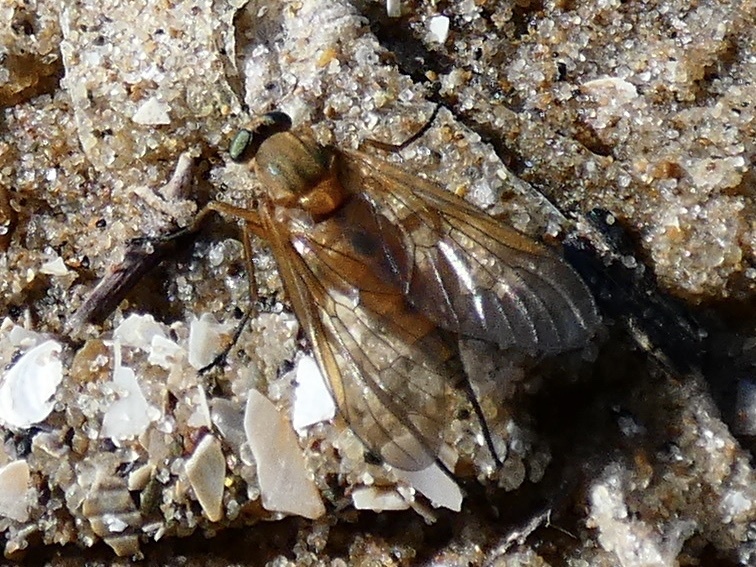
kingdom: Animalia
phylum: Arthropoda
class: Insecta
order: Diptera
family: Rhagionidae
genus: Rhagio
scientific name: Rhagio tringaria
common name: Marsh snipefly
